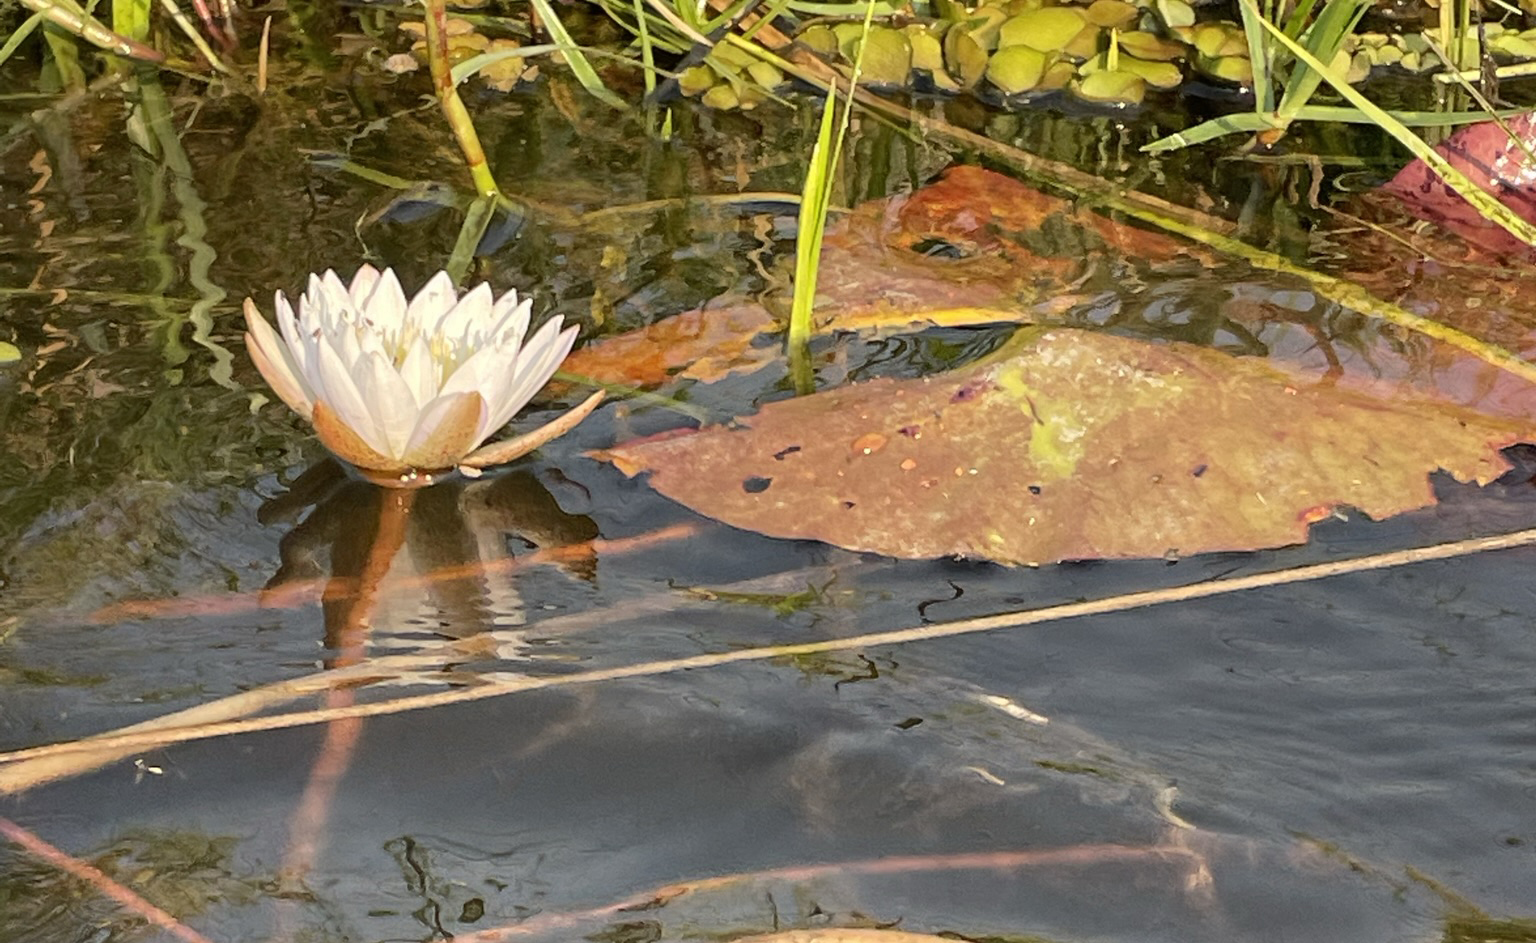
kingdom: Plantae
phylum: Tracheophyta
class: Magnoliopsida
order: Nymphaeales
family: Nymphaeaceae
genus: Nymphaea
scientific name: Nymphaea nouchali
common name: Blue lotus
